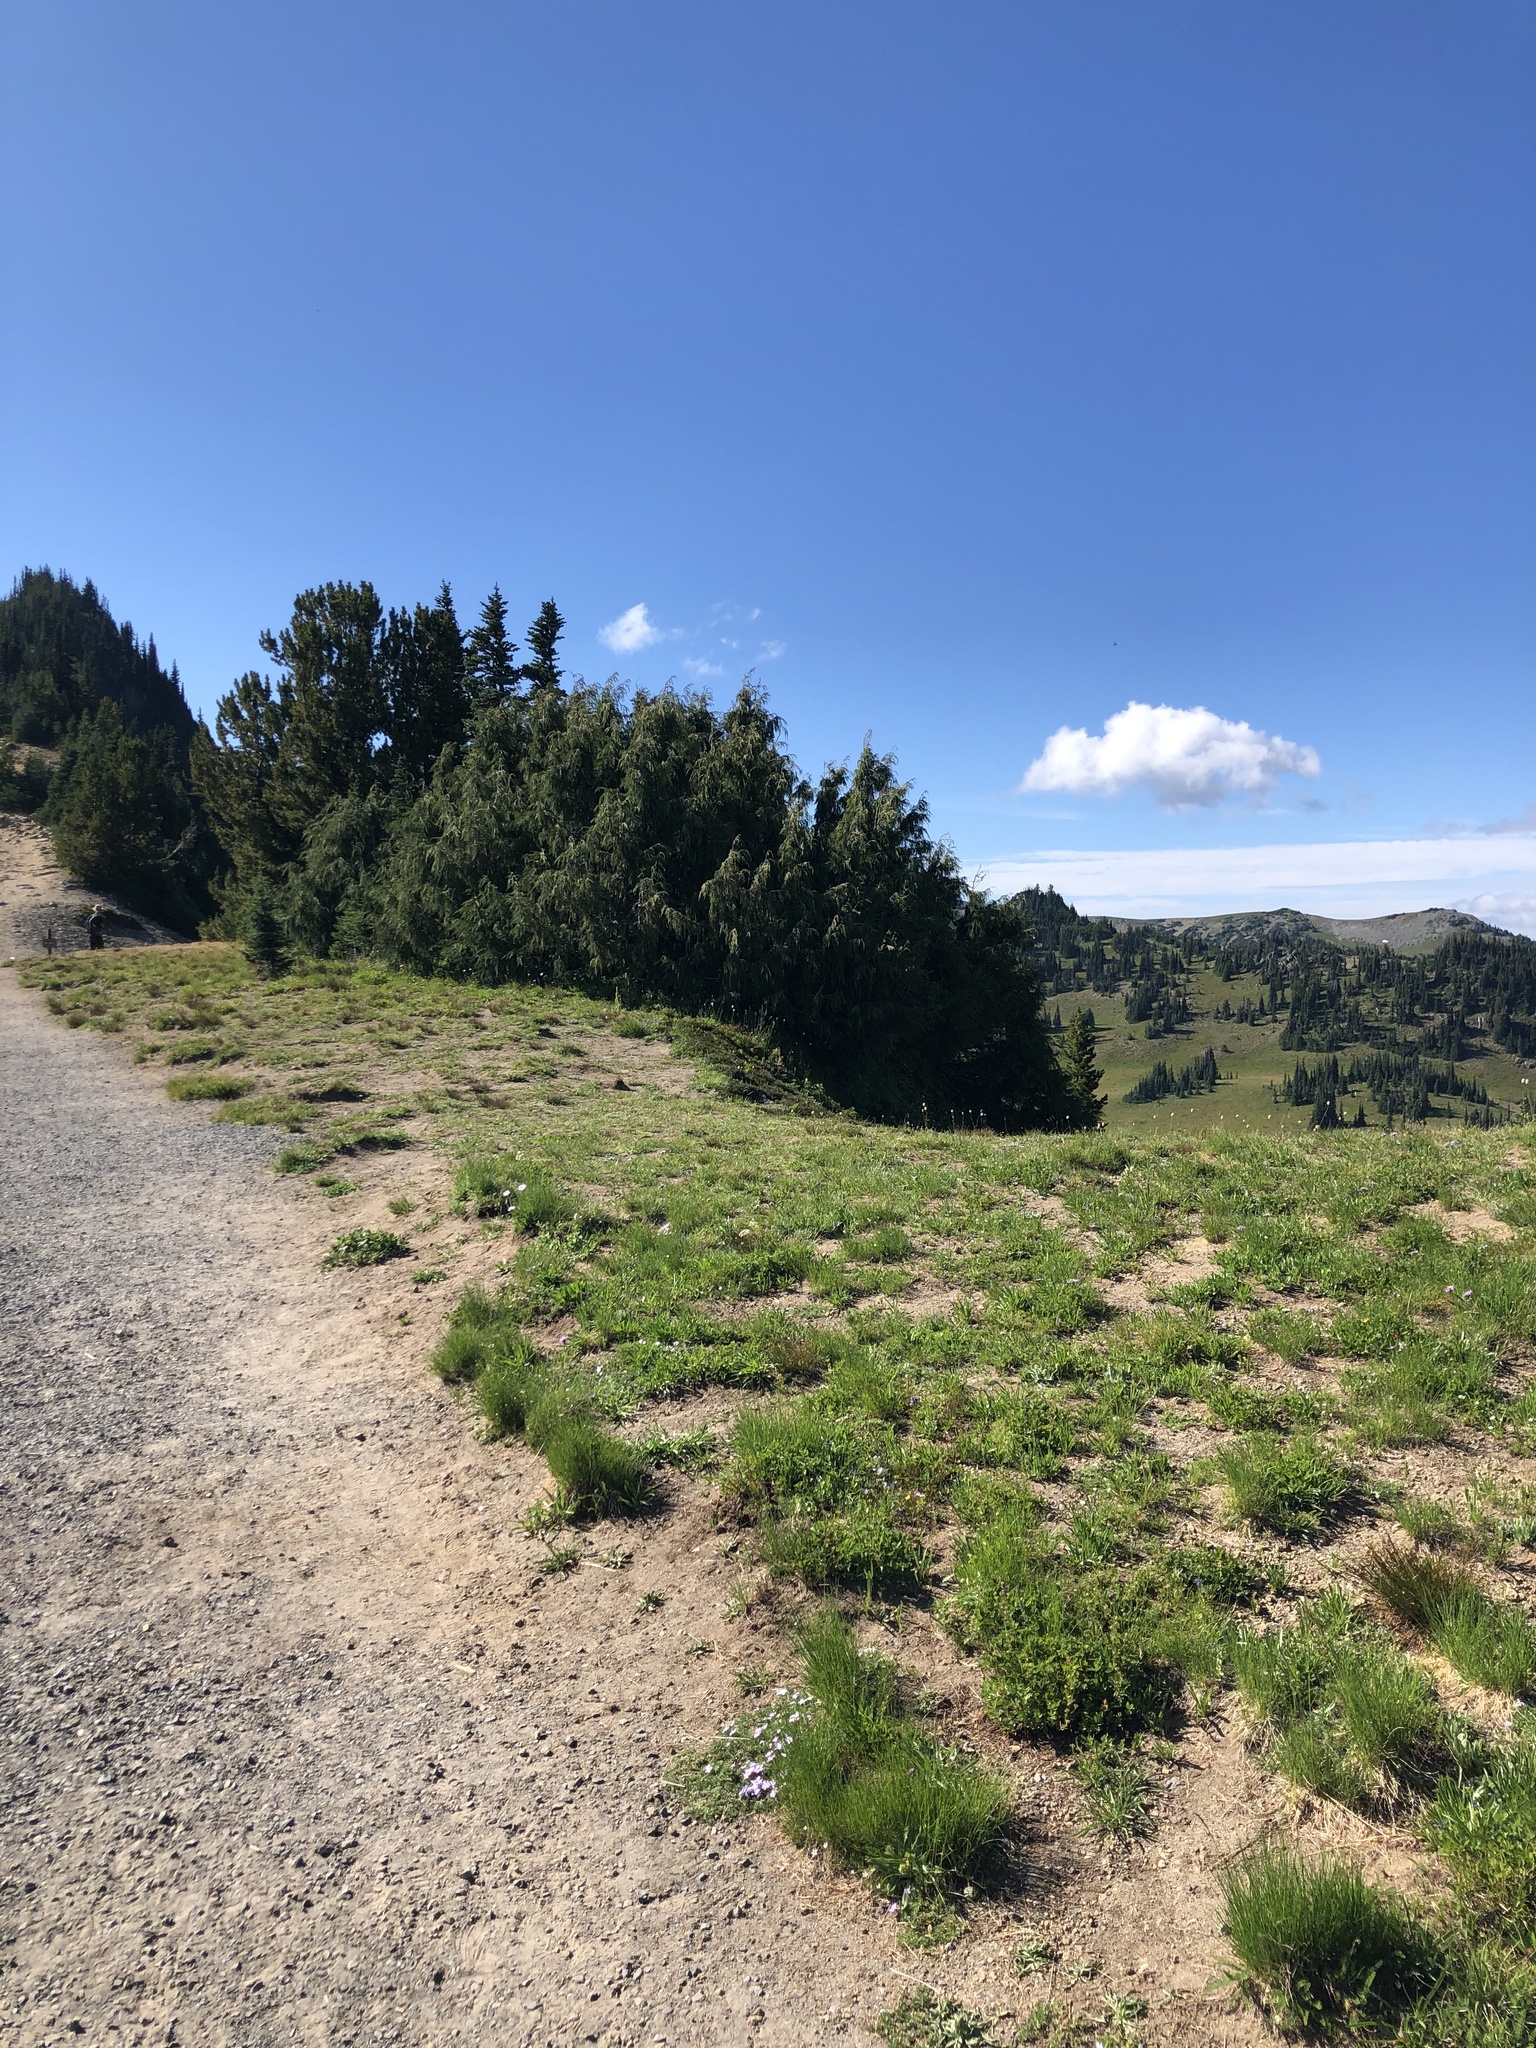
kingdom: Plantae
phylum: Tracheophyta
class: Pinopsida
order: Pinales
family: Cupressaceae
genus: Xanthocyparis
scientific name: Xanthocyparis nootkatensis
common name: Nootka cypress
